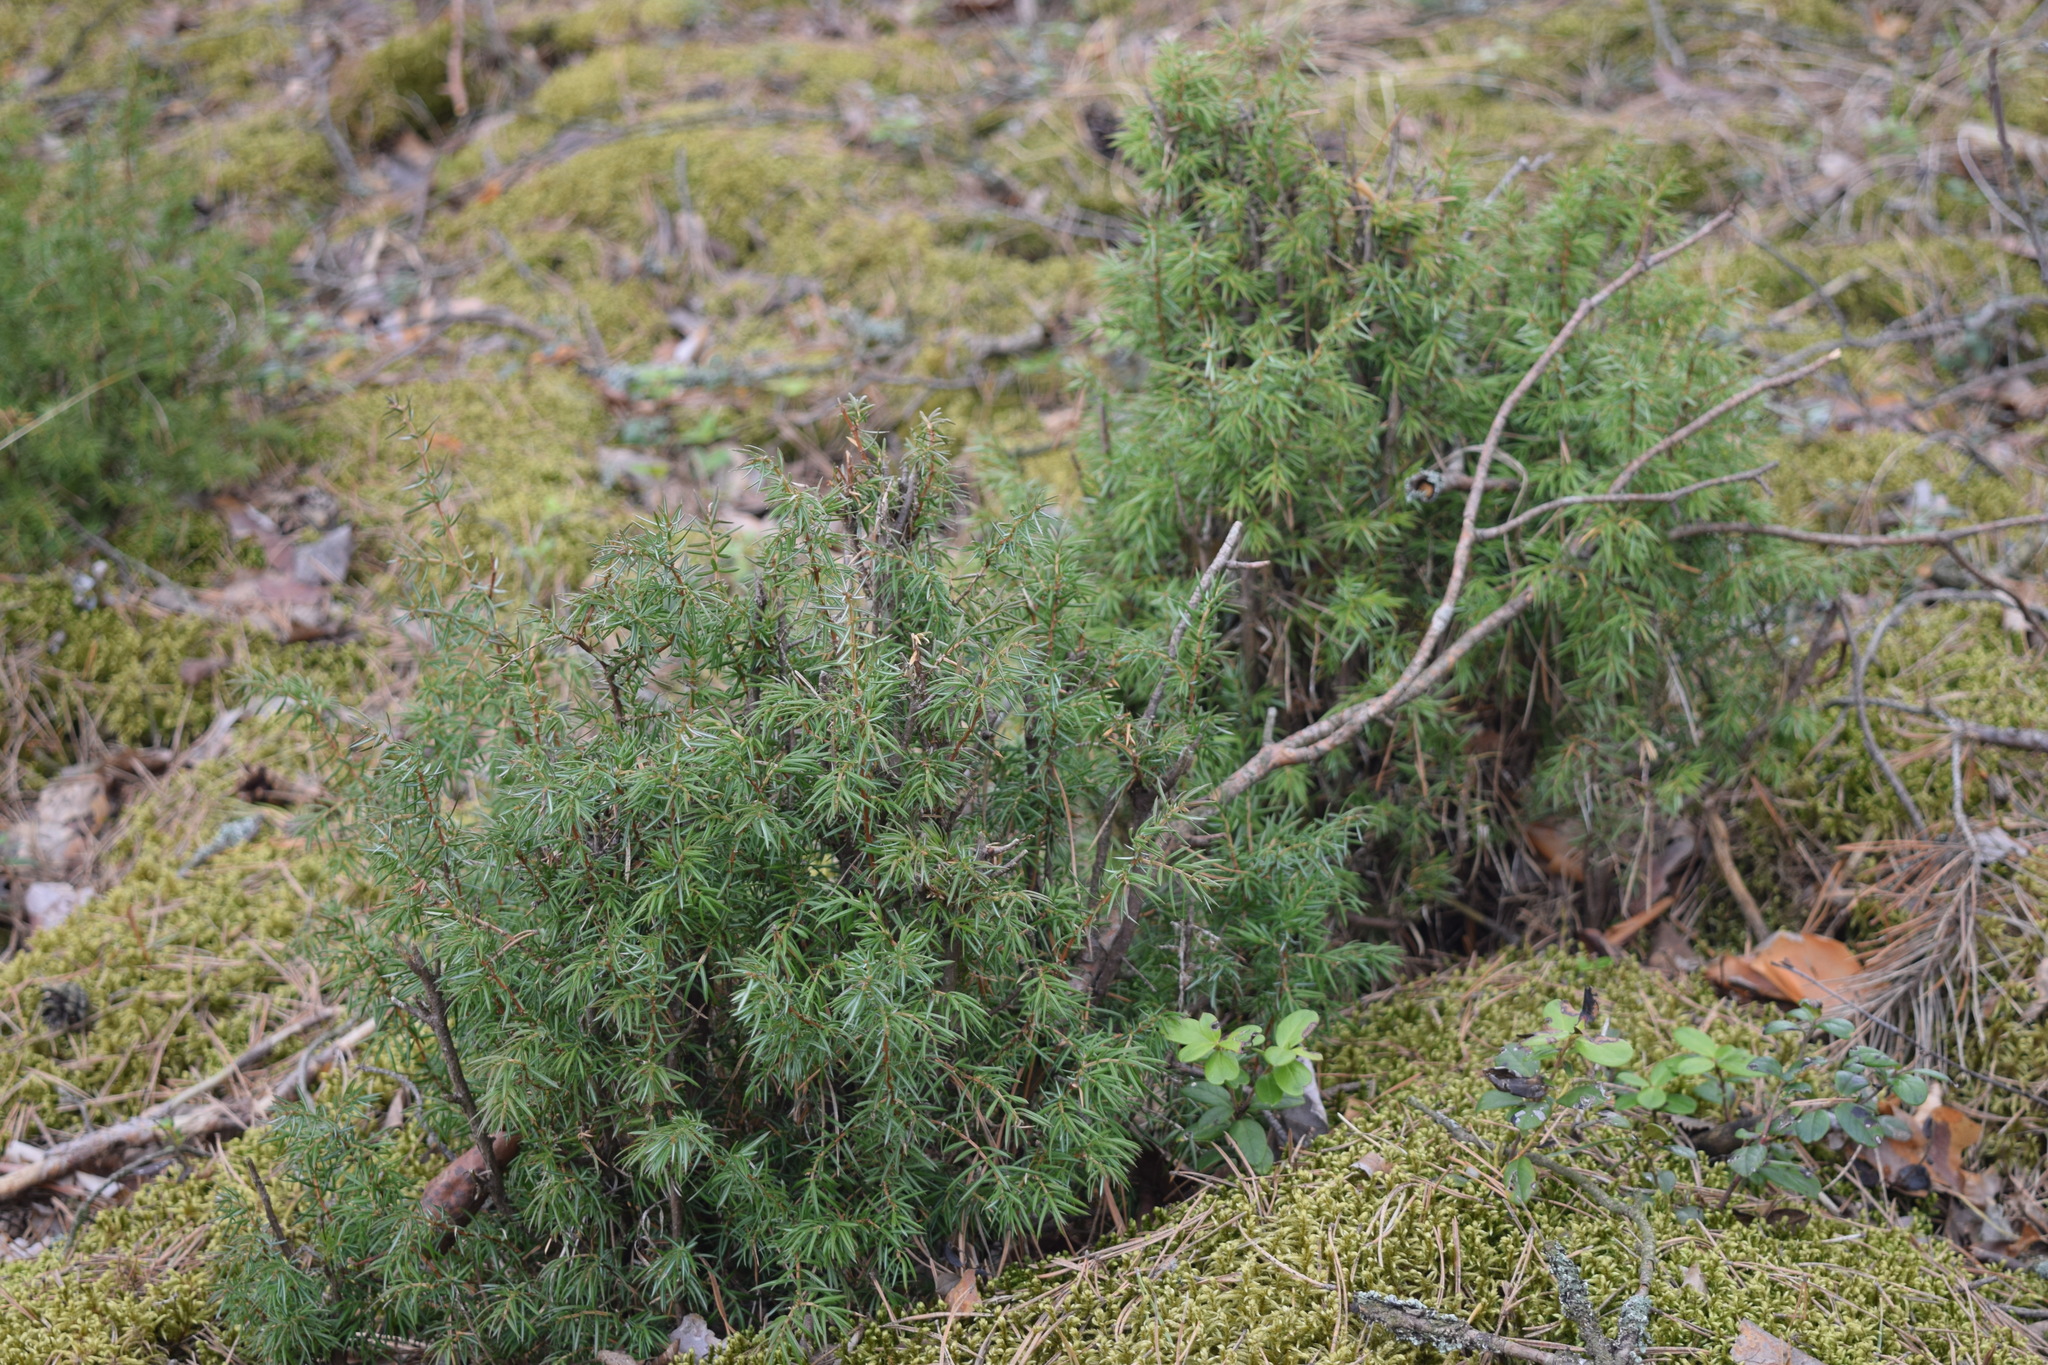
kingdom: Plantae
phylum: Tracheophyta
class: Pinopsida
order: Pinales
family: Cupressaceae
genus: Juniperus
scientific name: Juniperus communis
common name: Common juniper
